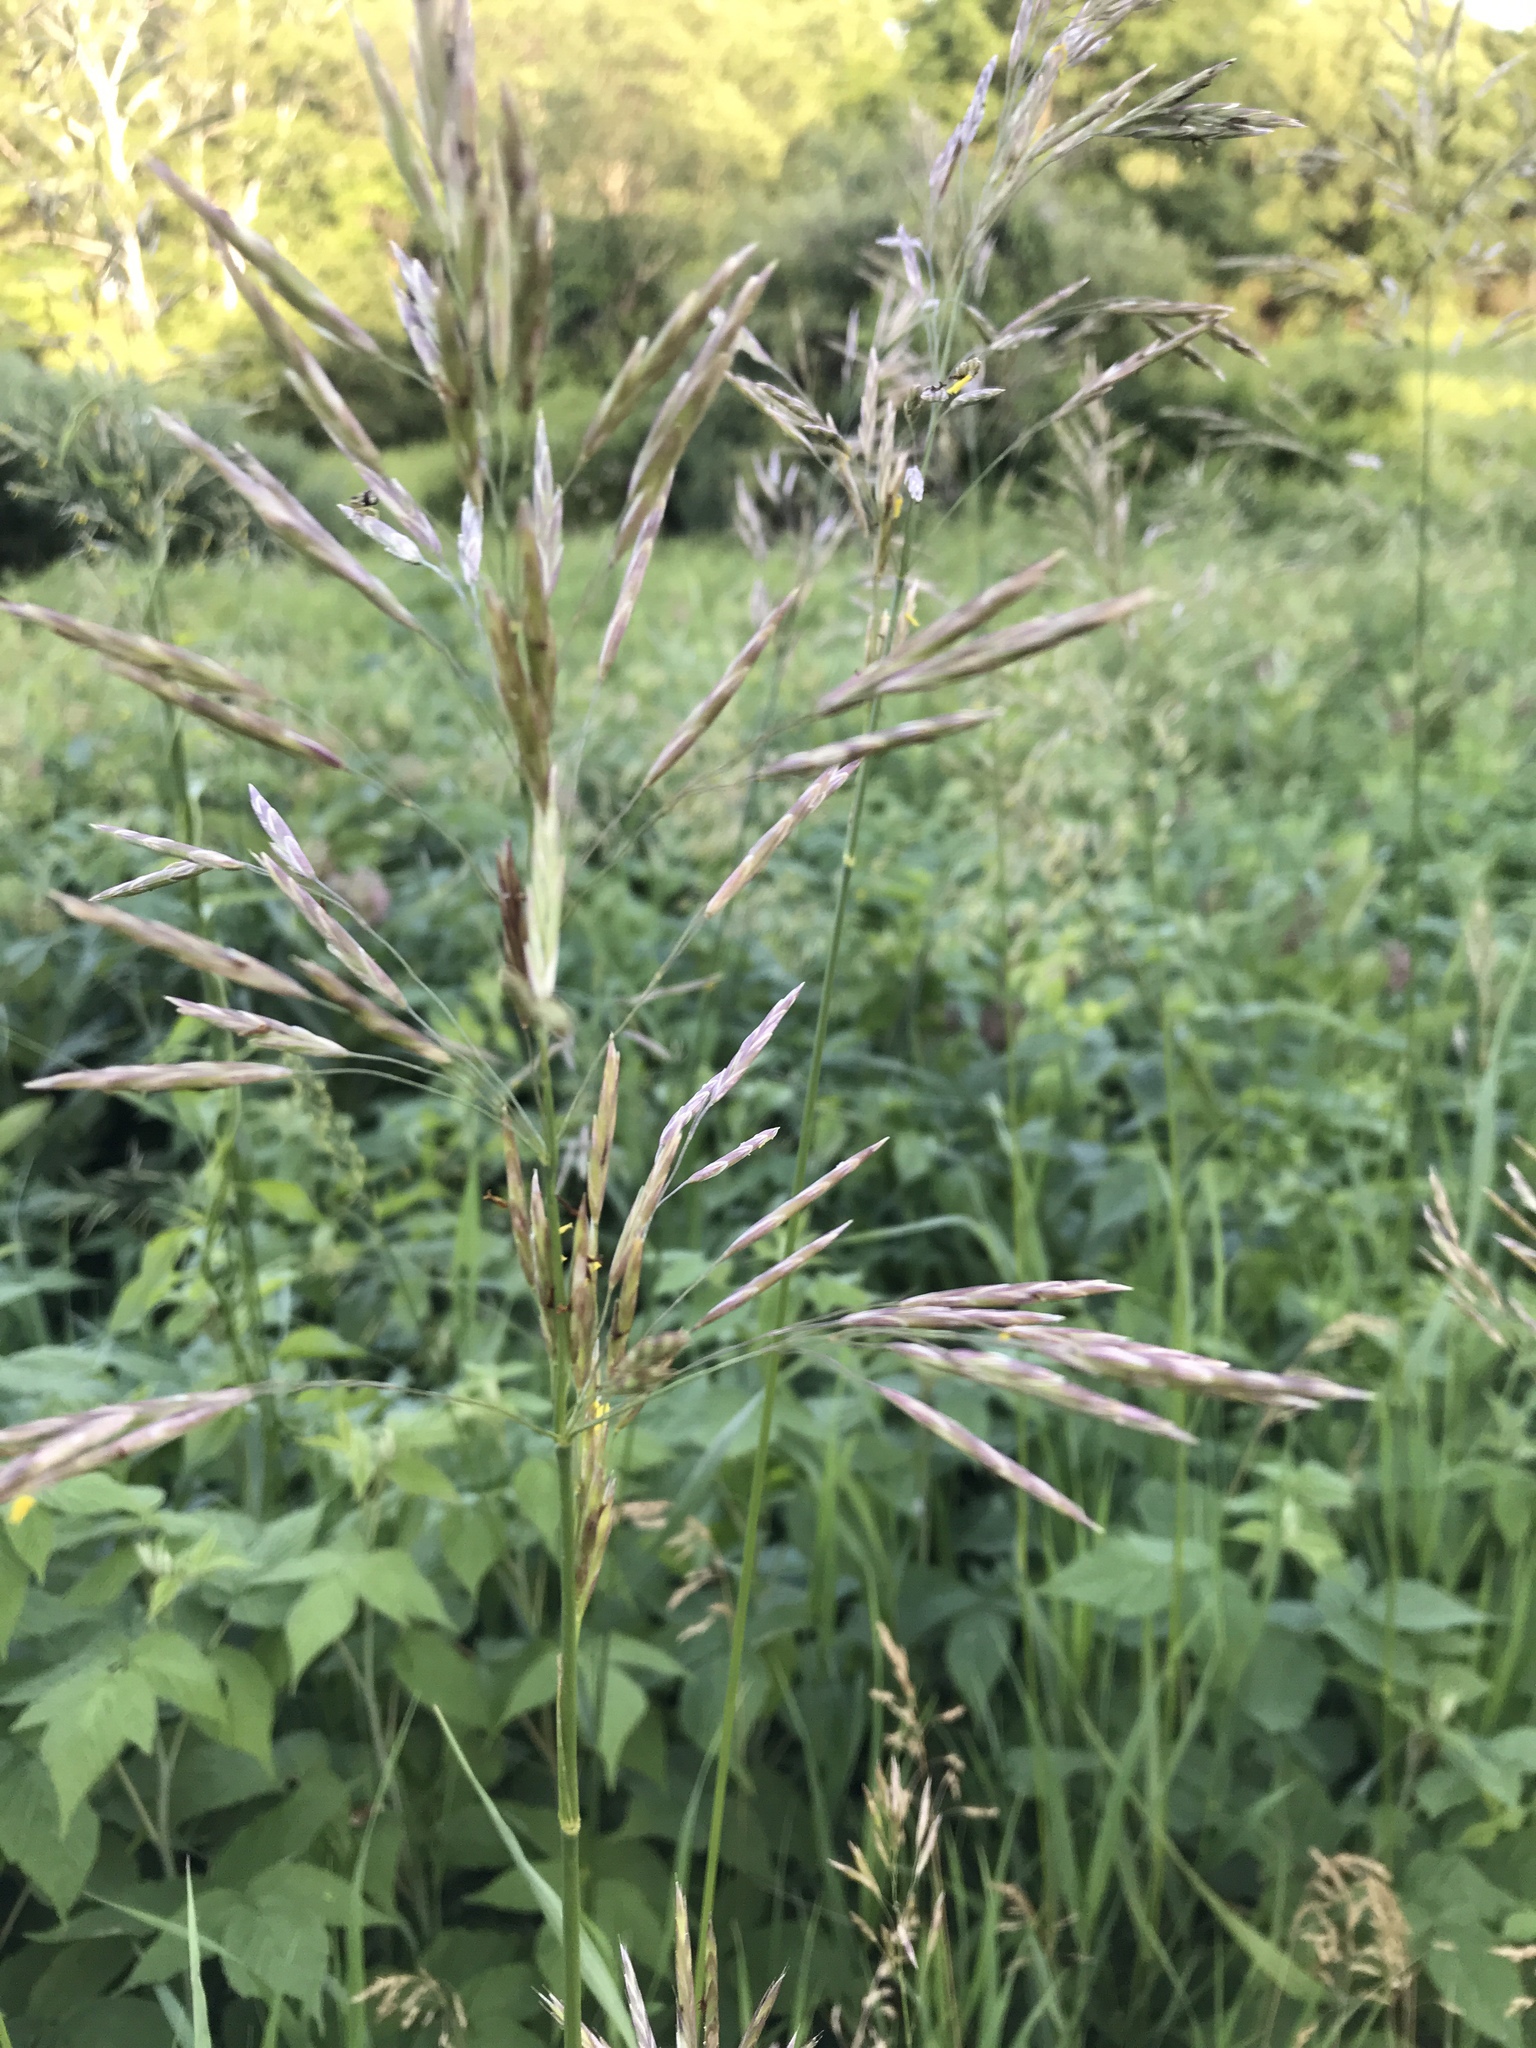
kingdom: Plantae
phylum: Tracheophyta
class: Liliopsida
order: Poales
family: Poaceae
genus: Bromus
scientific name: Bromus inermis
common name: Smooth brome
